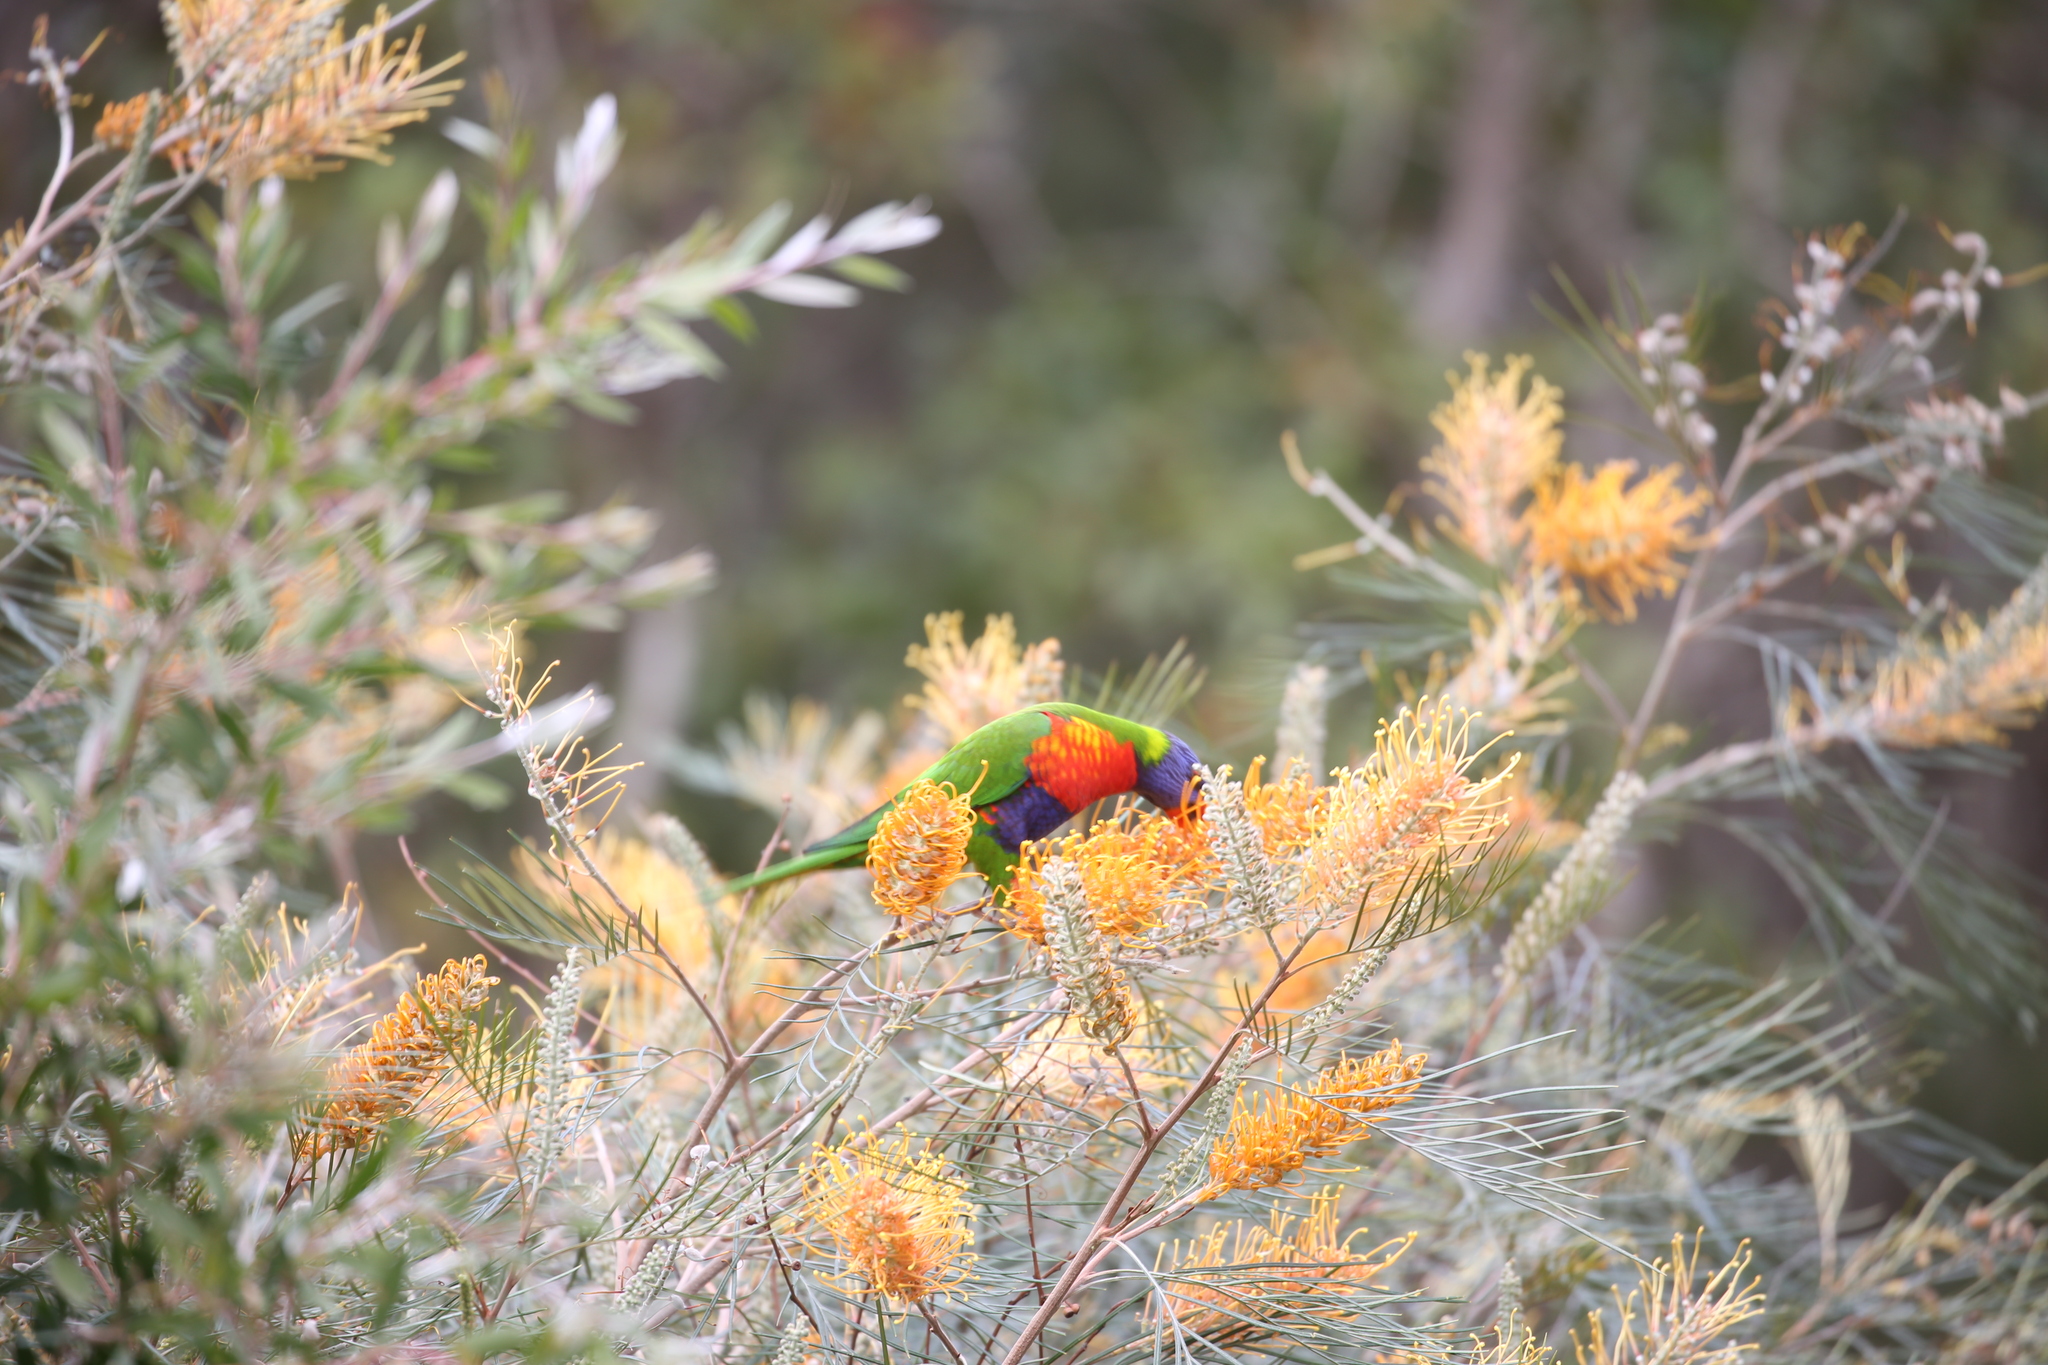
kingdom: Animalia
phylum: Chordata
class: Aves
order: Psittaciformes
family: Psittacidae
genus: Trichoglossus
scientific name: Trichoglossus haematodus
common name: Coconut lorikeet
